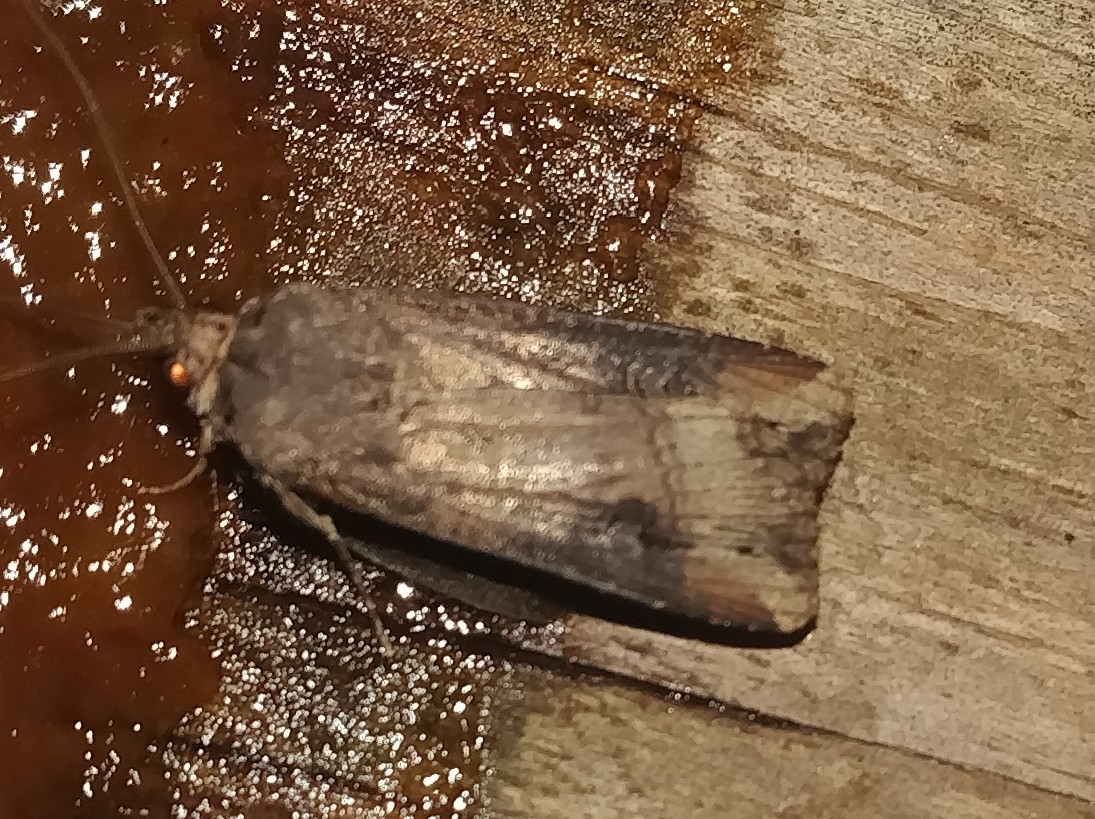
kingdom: Animalia
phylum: Arthropoda
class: Insecta
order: Lepidoptera
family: Noctuidae
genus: Agrotis
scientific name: Agrotis ipsilon
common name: Dark sword-grass
